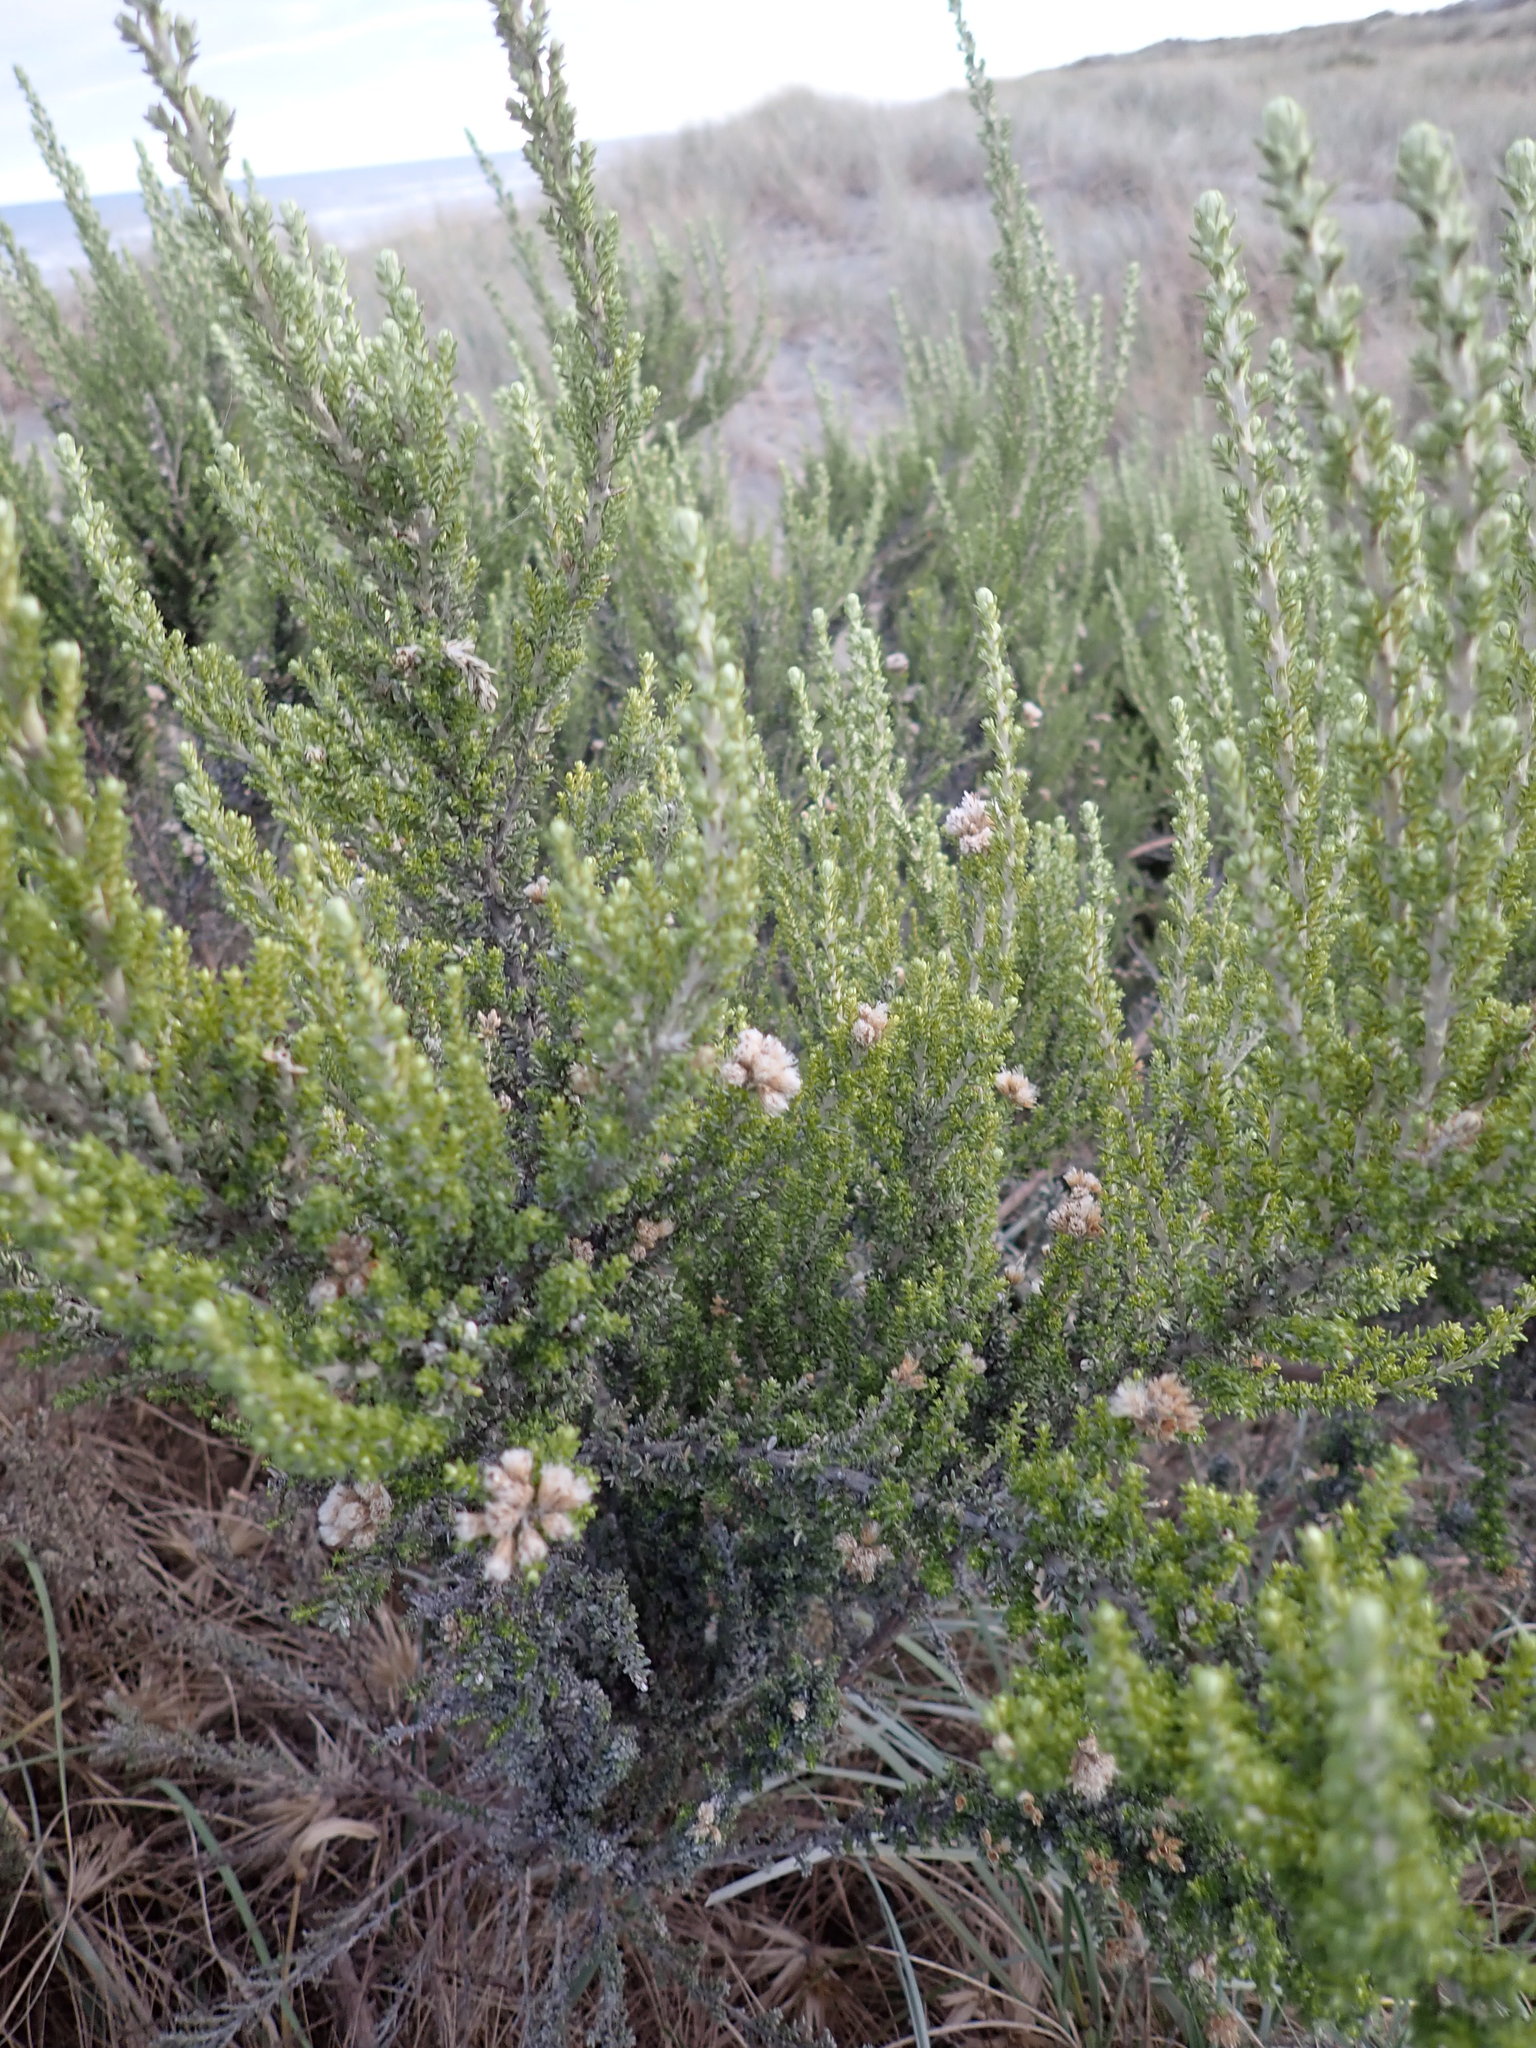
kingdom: Plantae
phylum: Tracheophyta
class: Magnoliopsida
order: Asterales
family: Asteraceae
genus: Ozothamnus
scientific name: Ozothamnus leptophyllus
